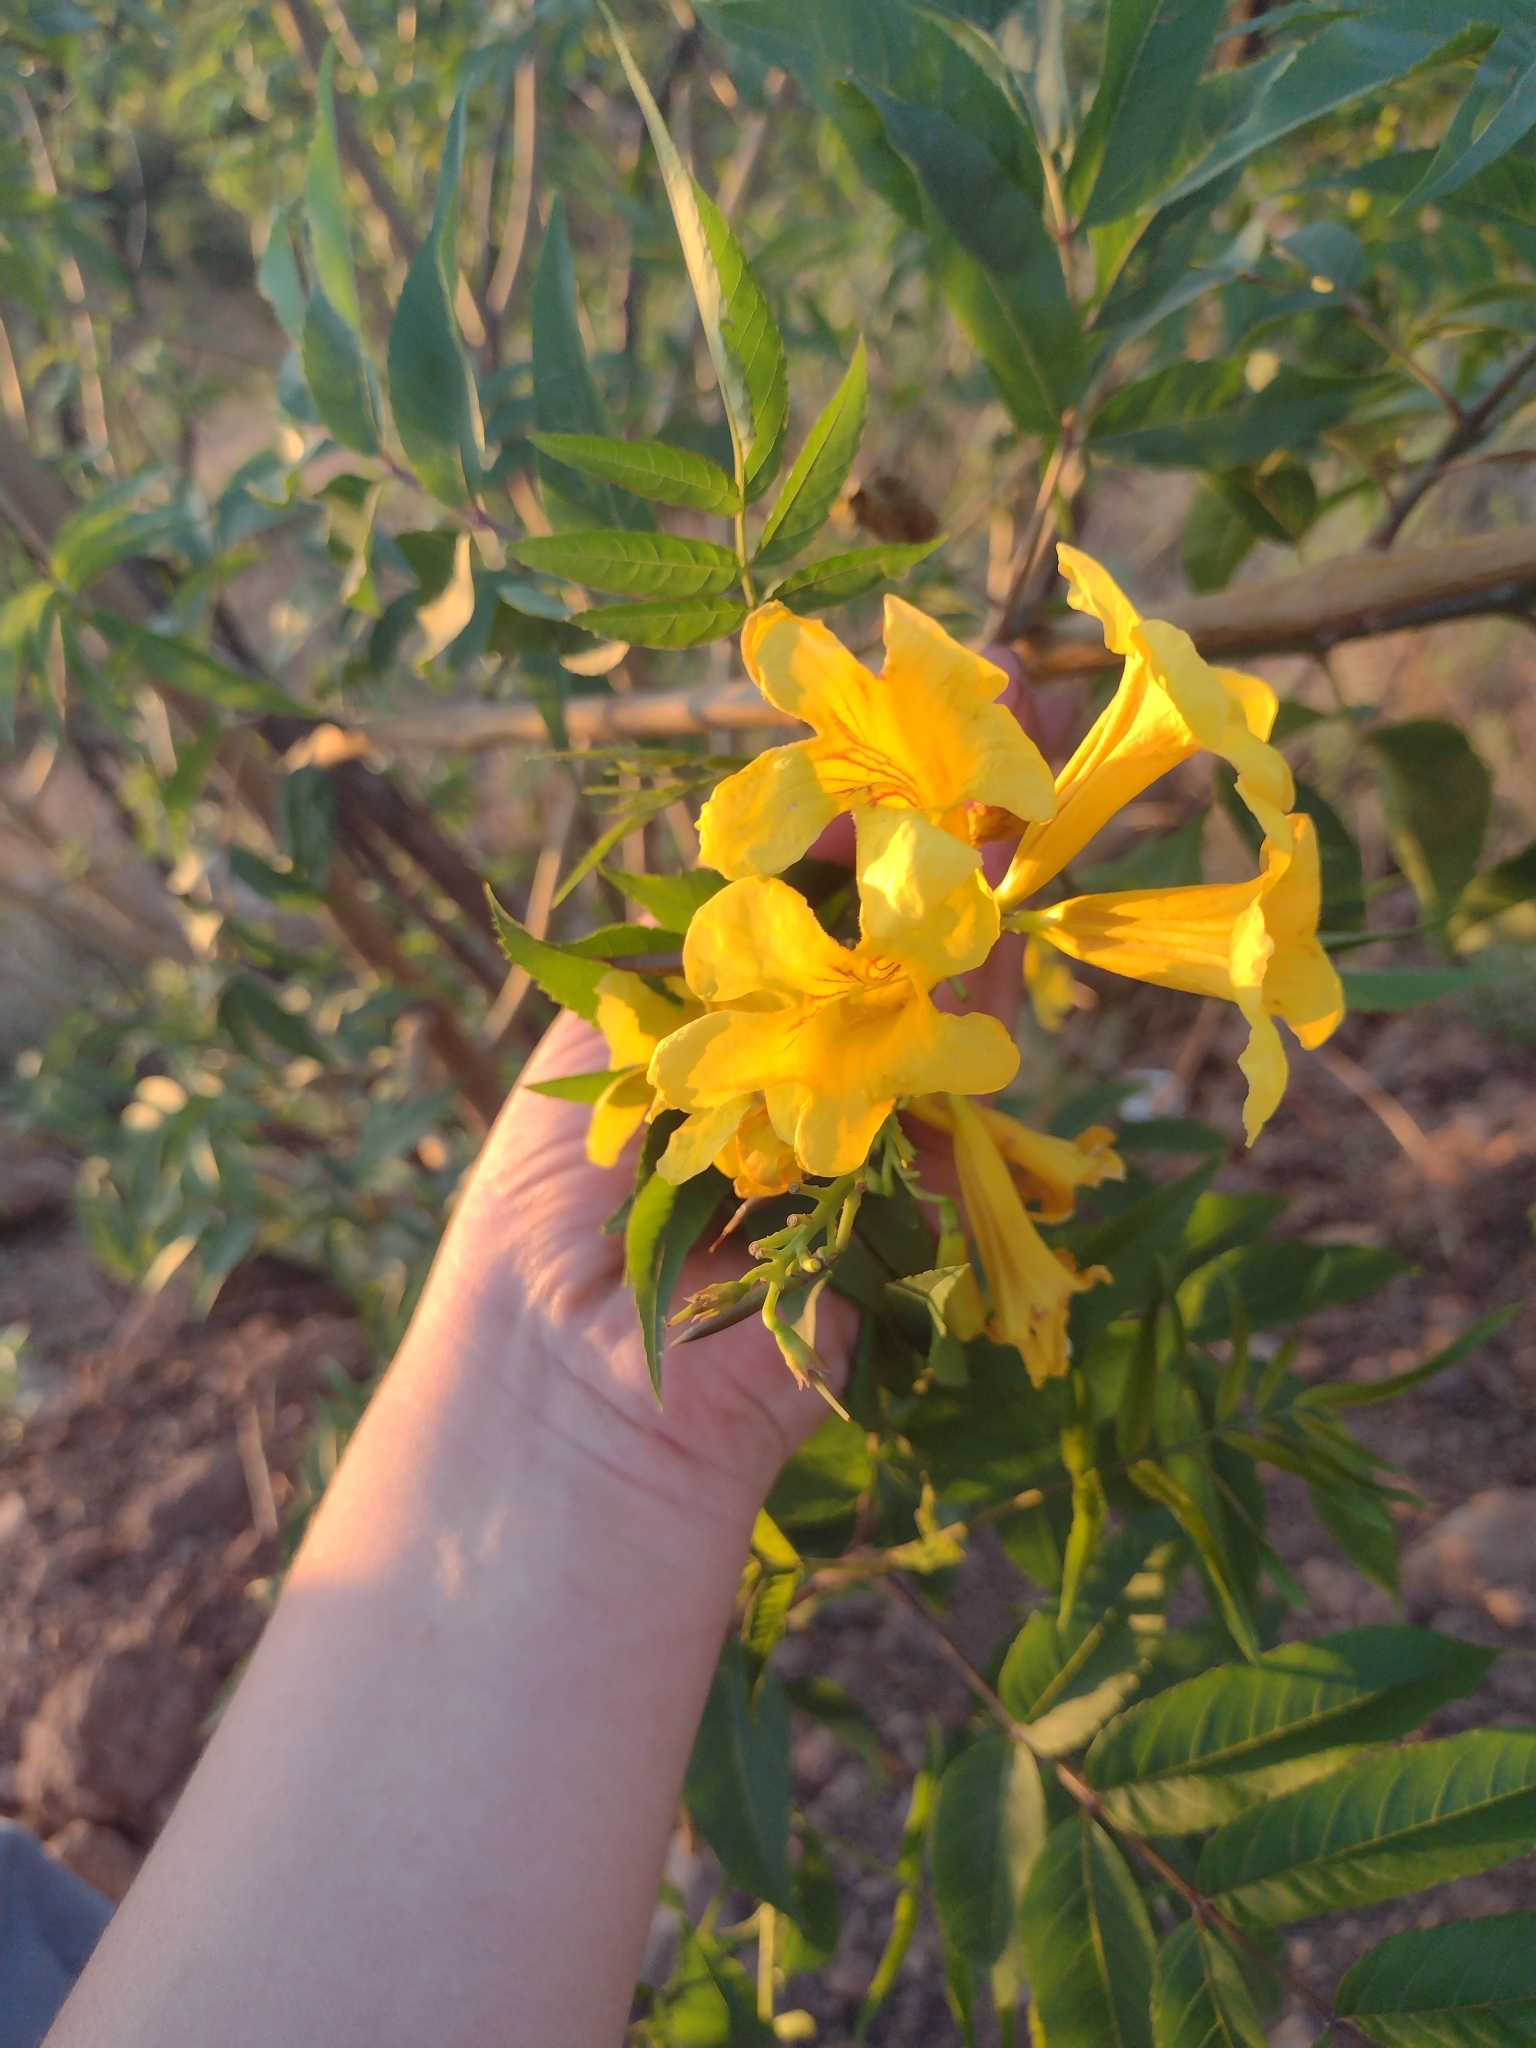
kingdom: Plantae
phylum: Tracheophyta
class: Magnoliopsida
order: Lamiales
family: Bignoniaceae
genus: Tecoma
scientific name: Tecoma stans
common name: Yellow trumpetbush
